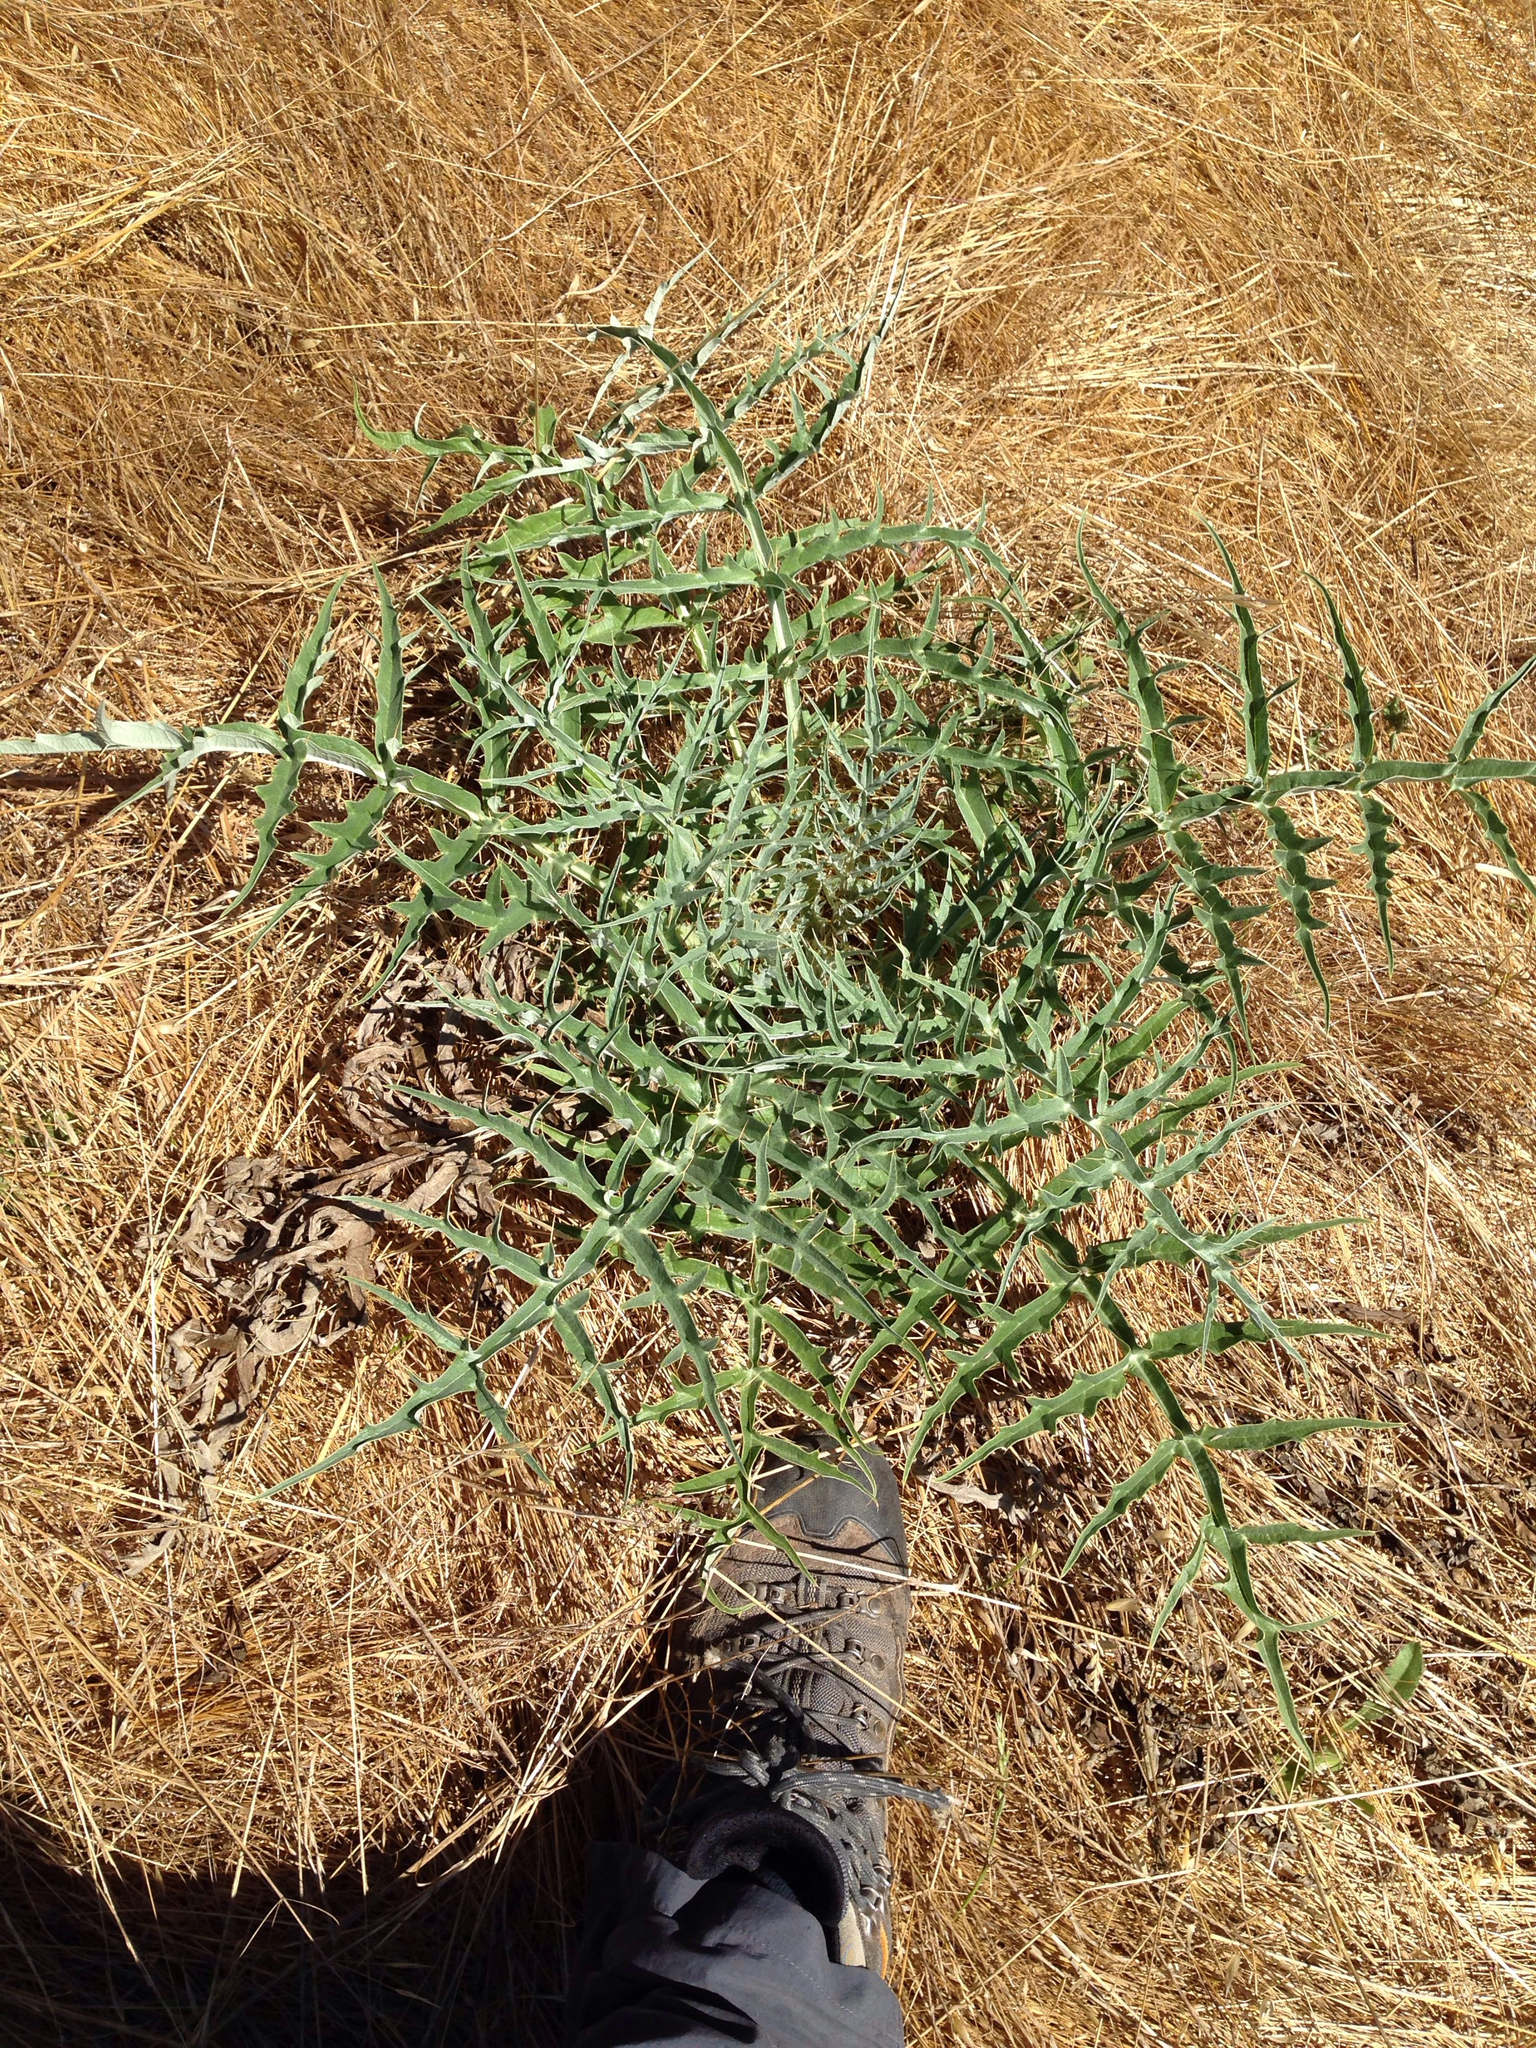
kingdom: Plantae
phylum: Tracheophyta
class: Magnoliopsida
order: Asterales
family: Asteraceae
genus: Cynara
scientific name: Cynara cardunculus
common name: Globe artichoke
